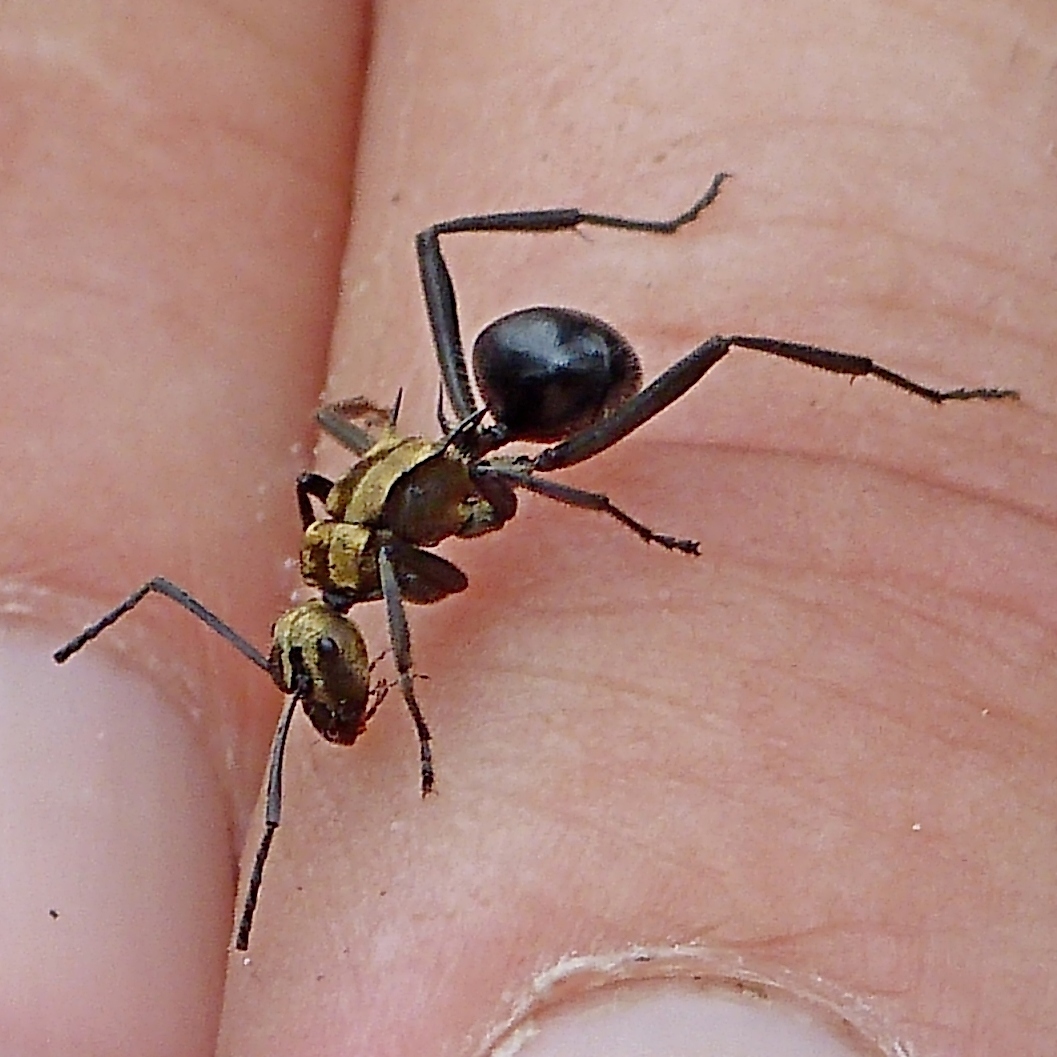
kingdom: Animalia
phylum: Arthropoda
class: Insecta
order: Hymenoptera
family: Formicidae
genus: Polyrhachis
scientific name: Polyrhachis semiaurata
